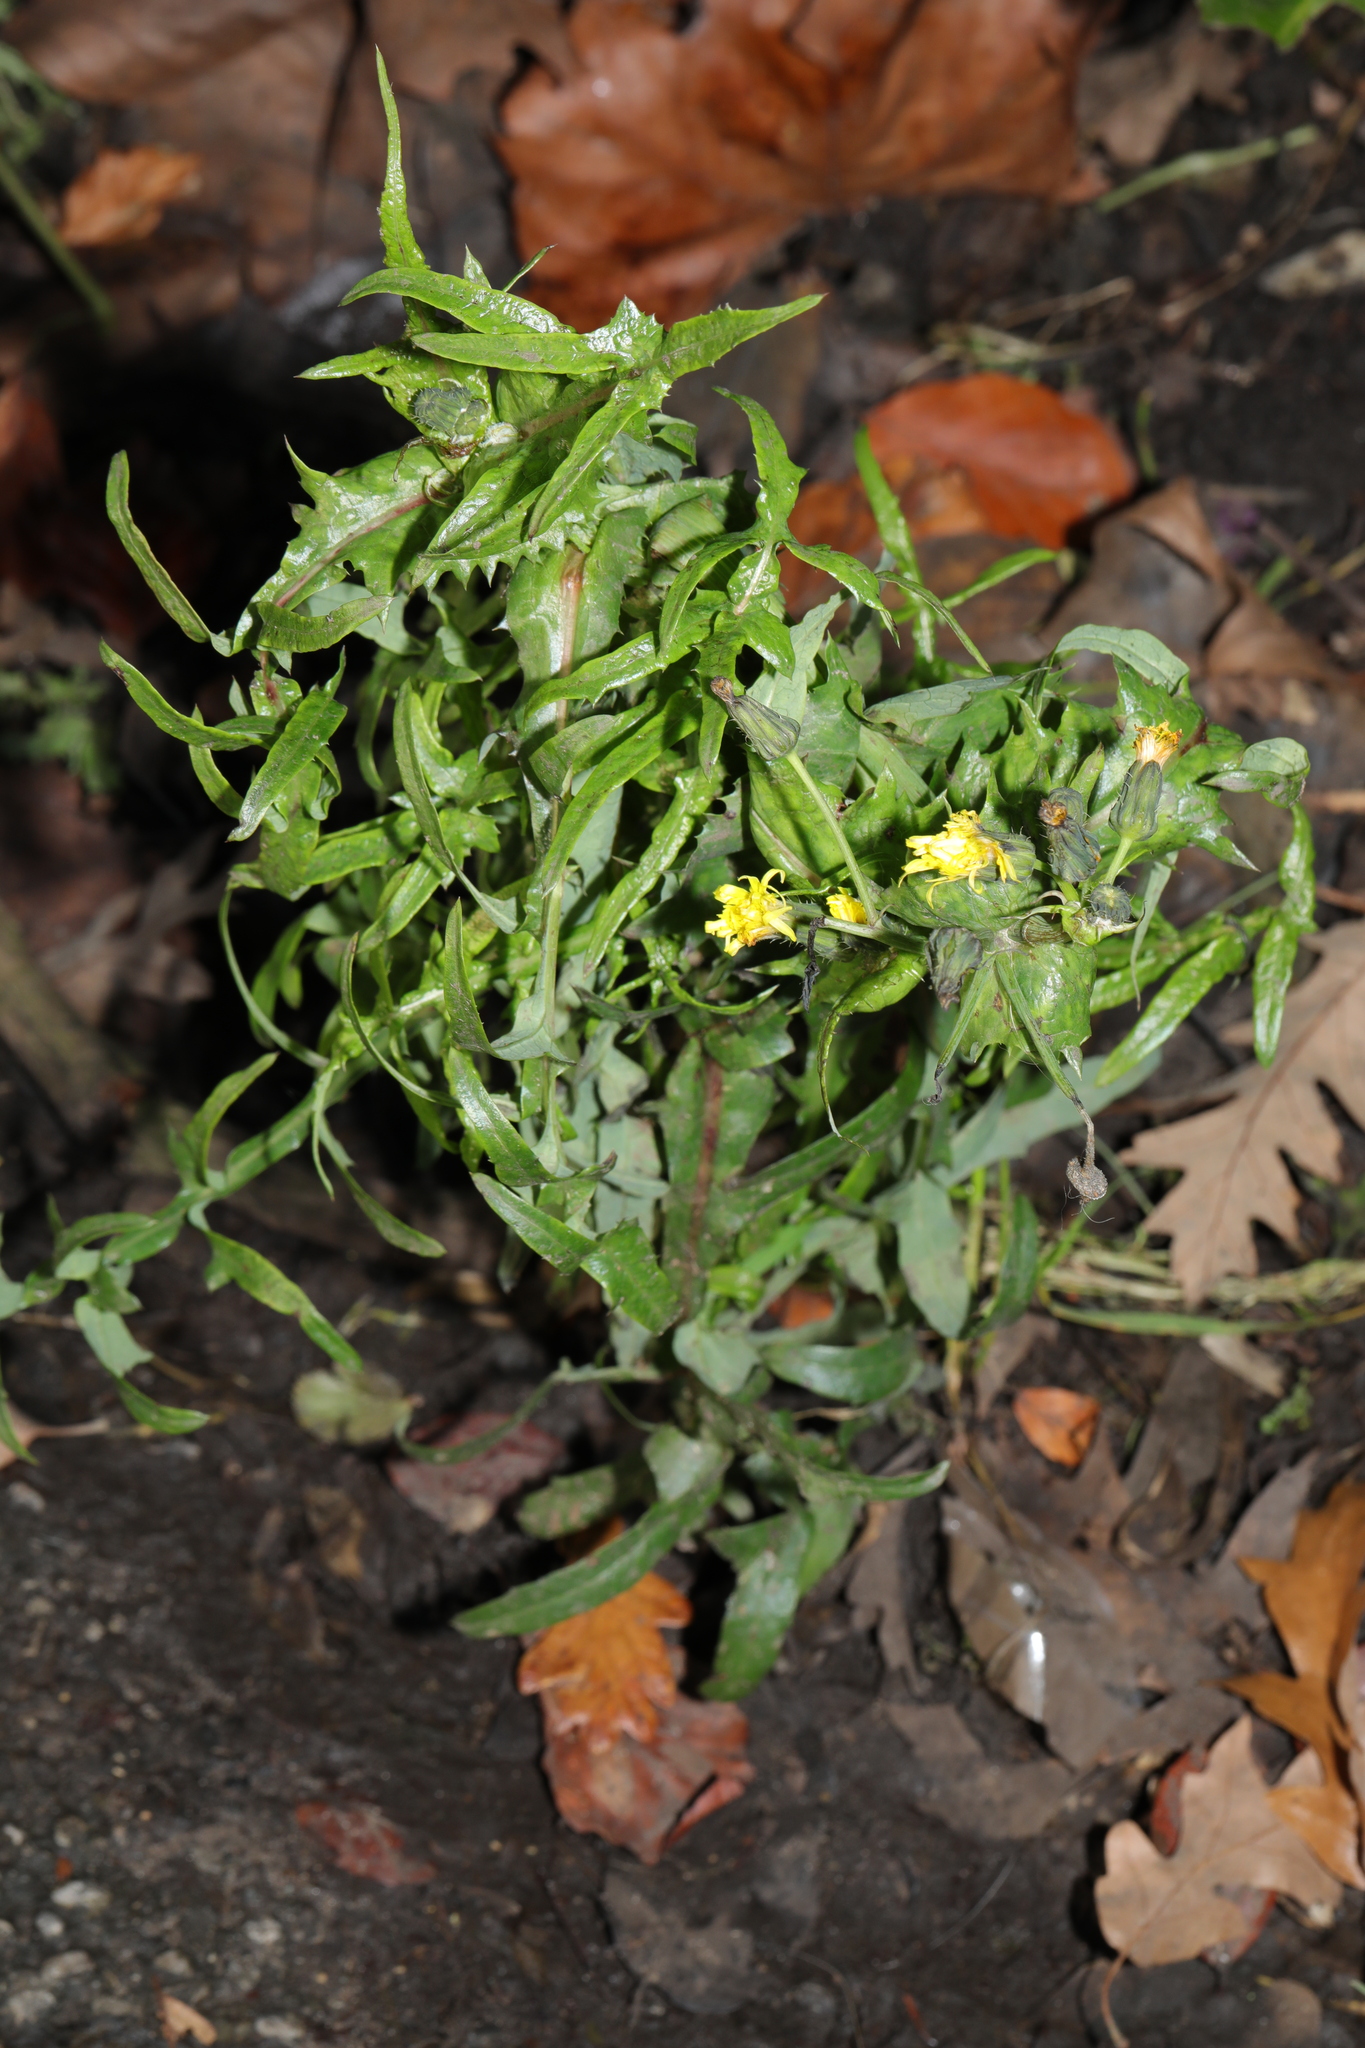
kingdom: Plantae
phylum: Tracheophyta
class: Magnoliopsida
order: Asterales
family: Asteraceae
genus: Sonchus
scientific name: Sonchus oleraceus
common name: Common sowthistle
